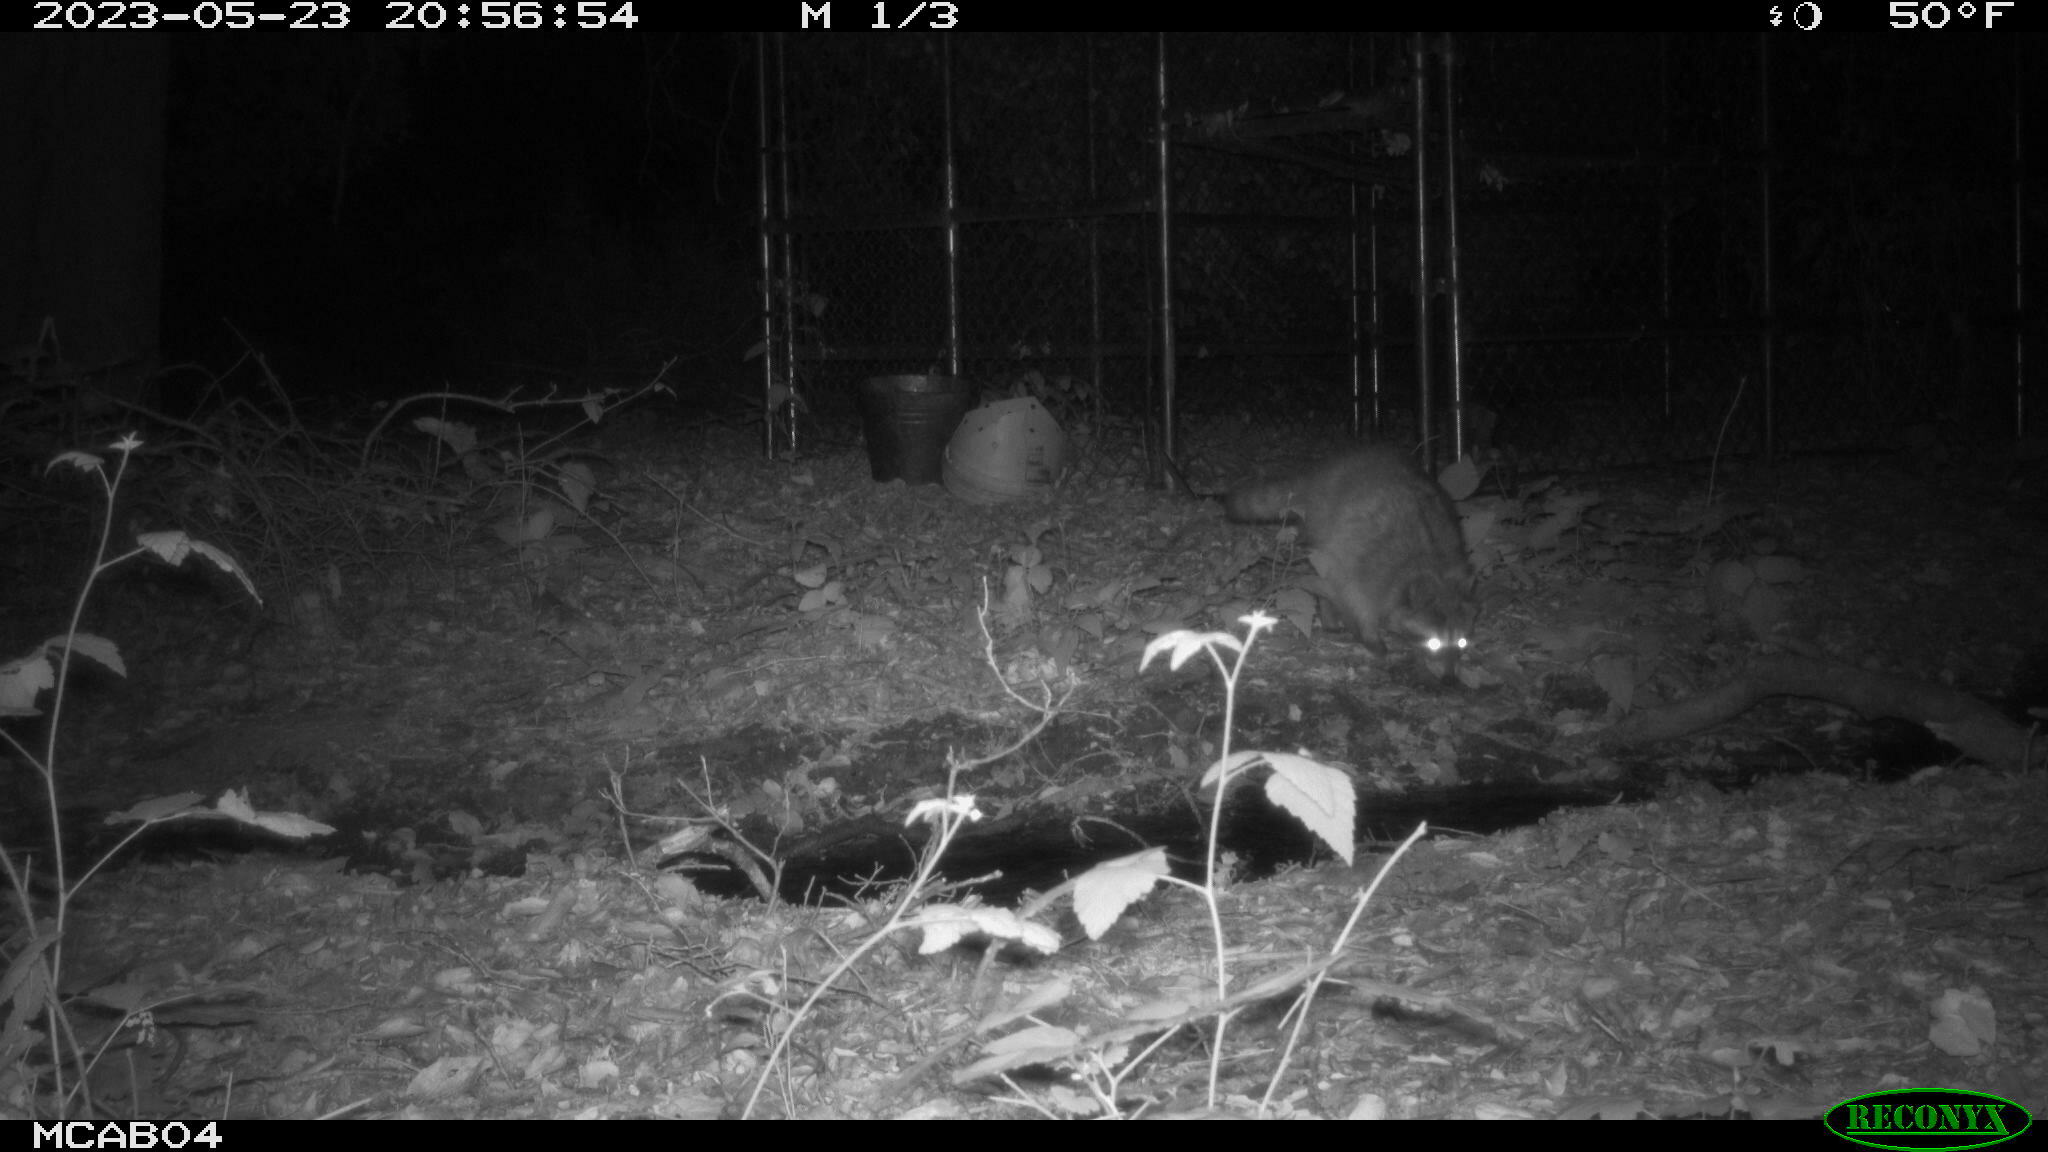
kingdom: Animalia
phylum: Chordata
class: Mammalia
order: Carnivora
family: Procyonidae
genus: Procyon
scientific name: Procyon lotor
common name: Raccoon
